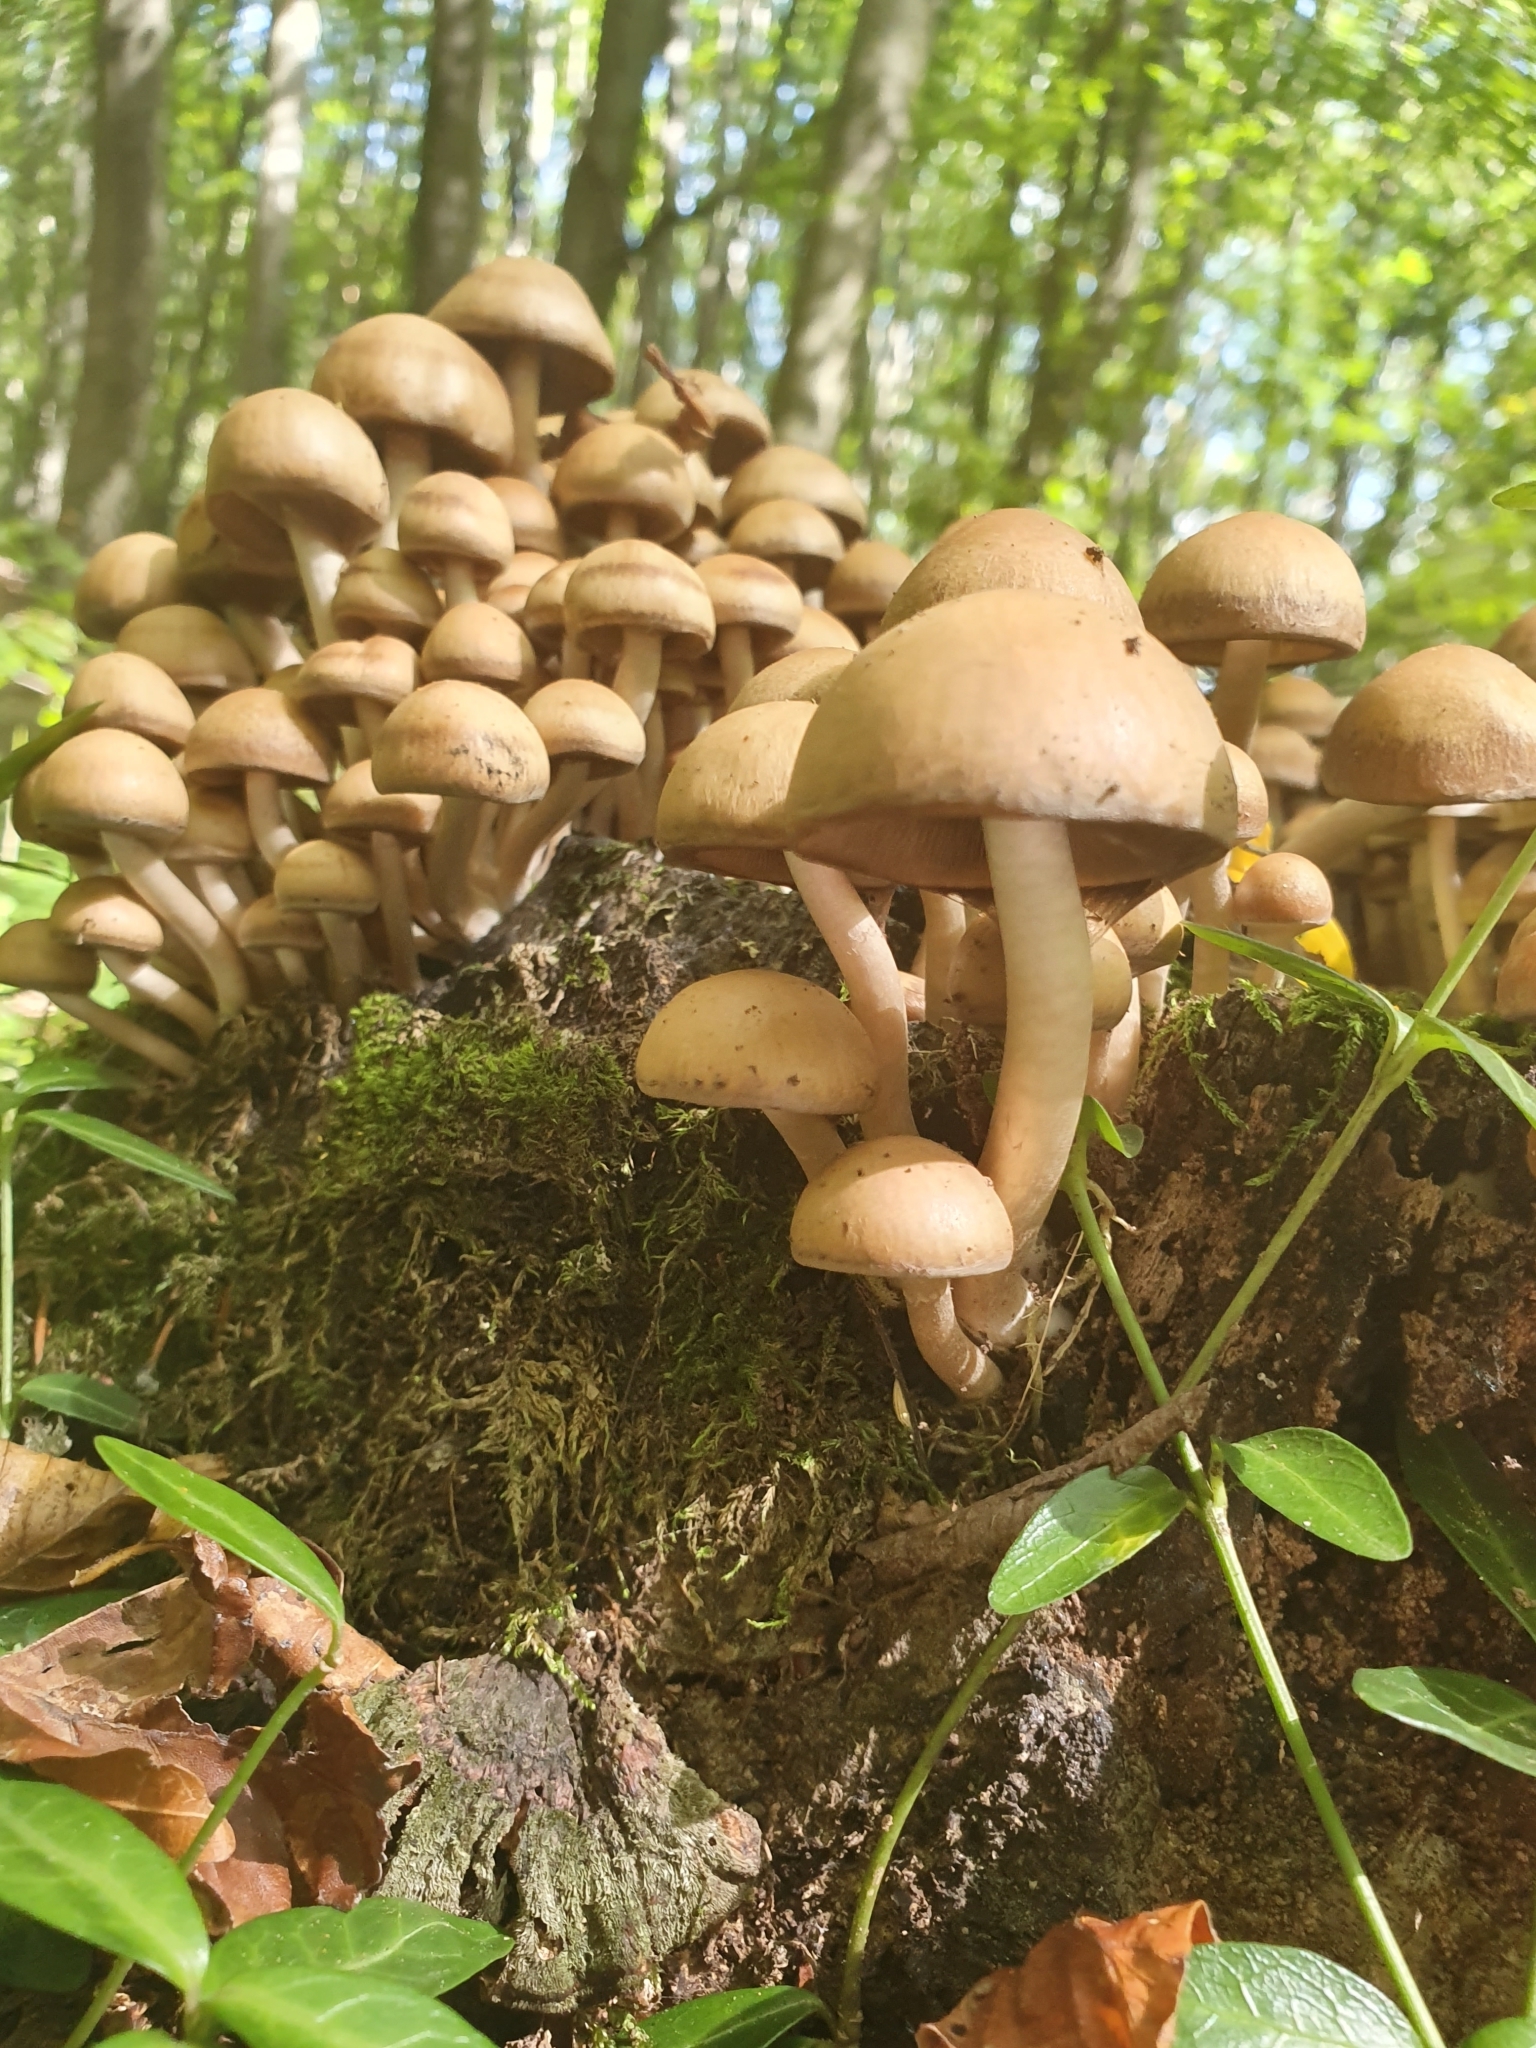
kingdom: Fungi
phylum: Basidiomycota
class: Agaricomycetes
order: Agaricales
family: Psathyrellaceae
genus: Psathyrella
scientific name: Psathyrella piluliformis
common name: Common stump brittlestem
